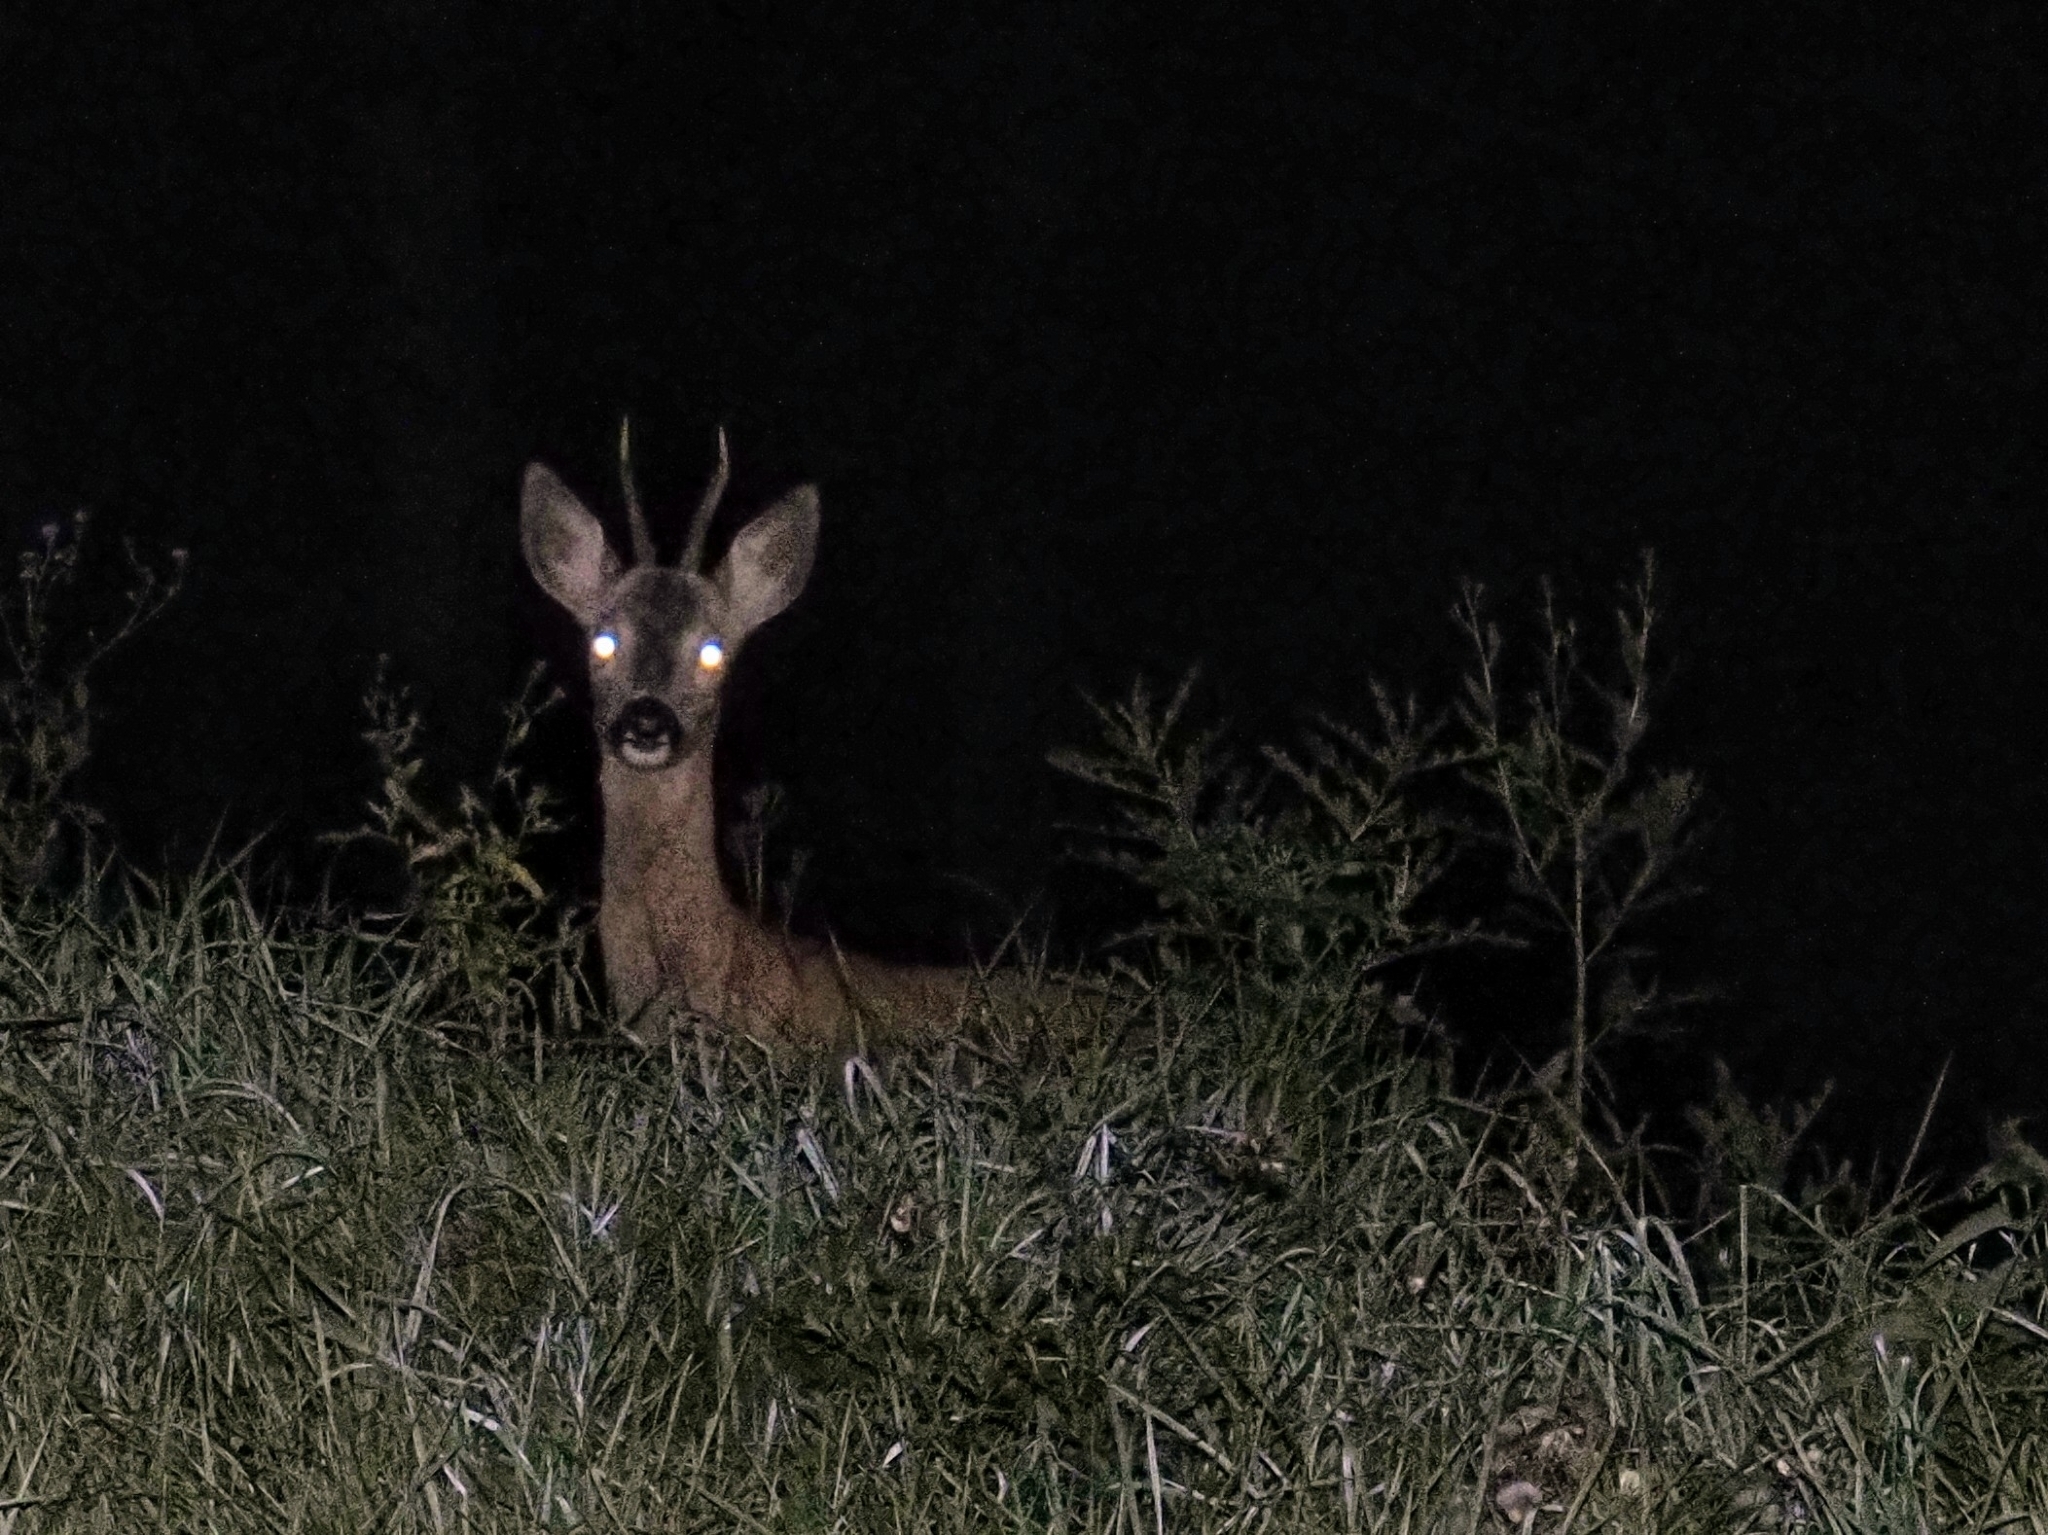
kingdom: Animalia
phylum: Chordata
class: Mammalia
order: Artiodactyla
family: Cervidae
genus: Capreolus
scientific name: Capreolus capreolus
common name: Western roe deer
